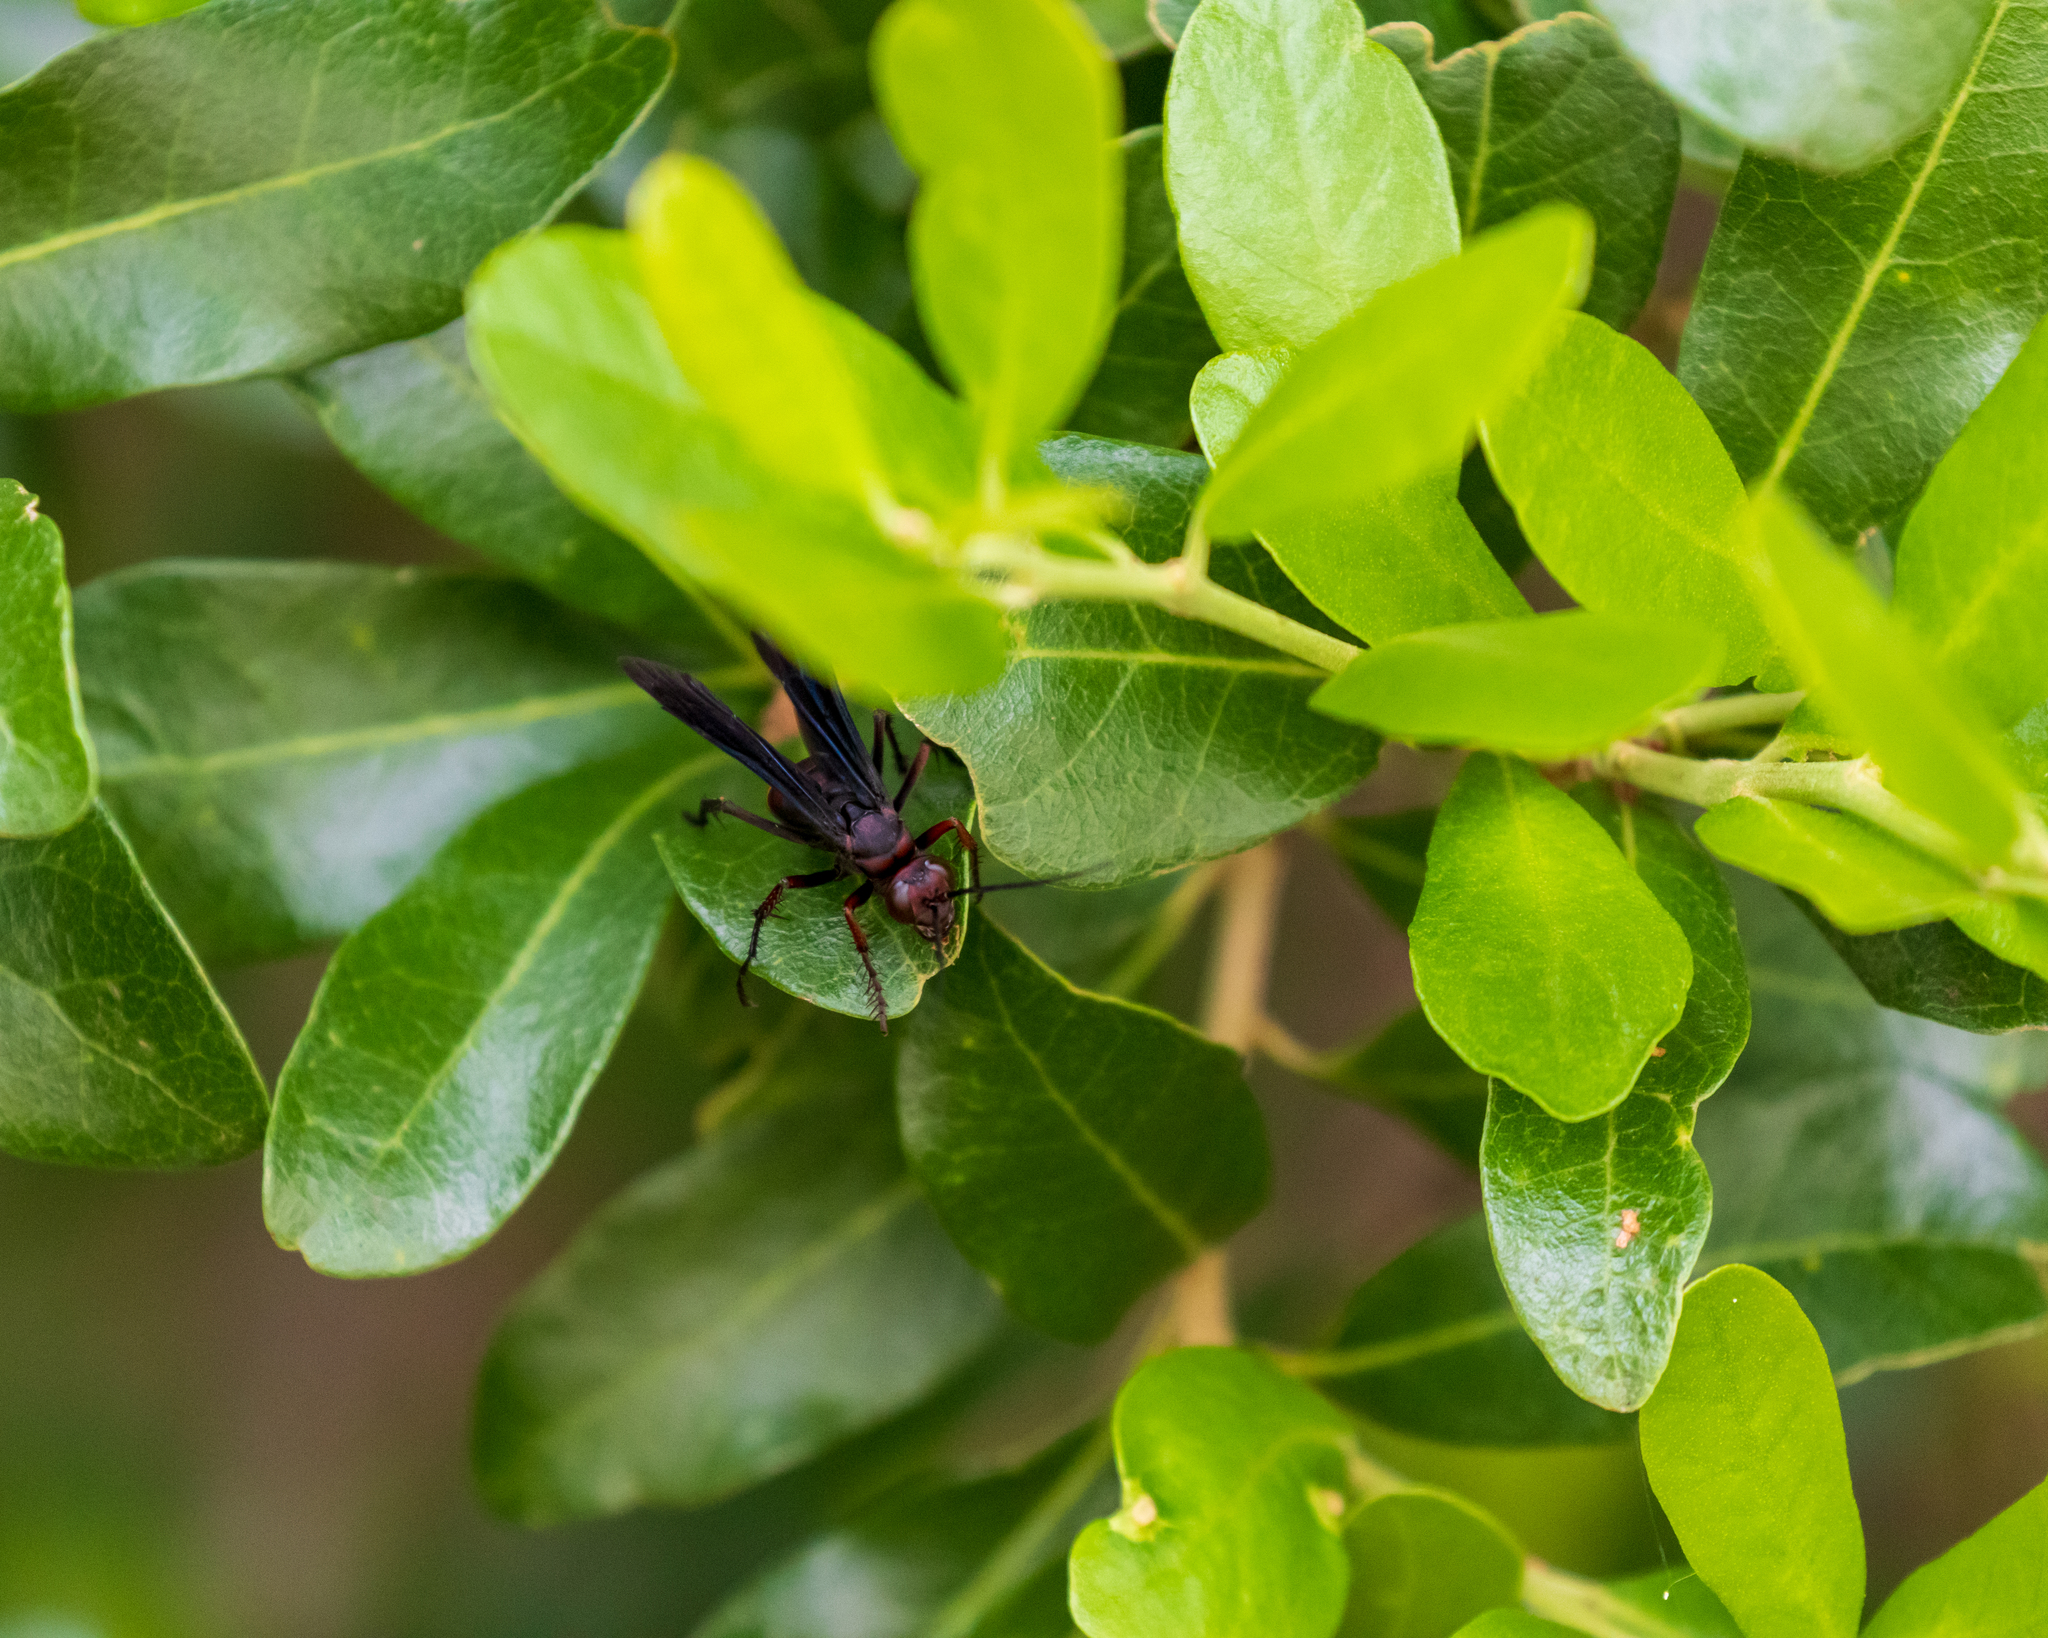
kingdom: Animalia
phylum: Arthropoda
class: Insecta
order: Hymenoptera
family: Pompilidae
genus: Poecilopompilus
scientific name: Poecilopompilus algidus
